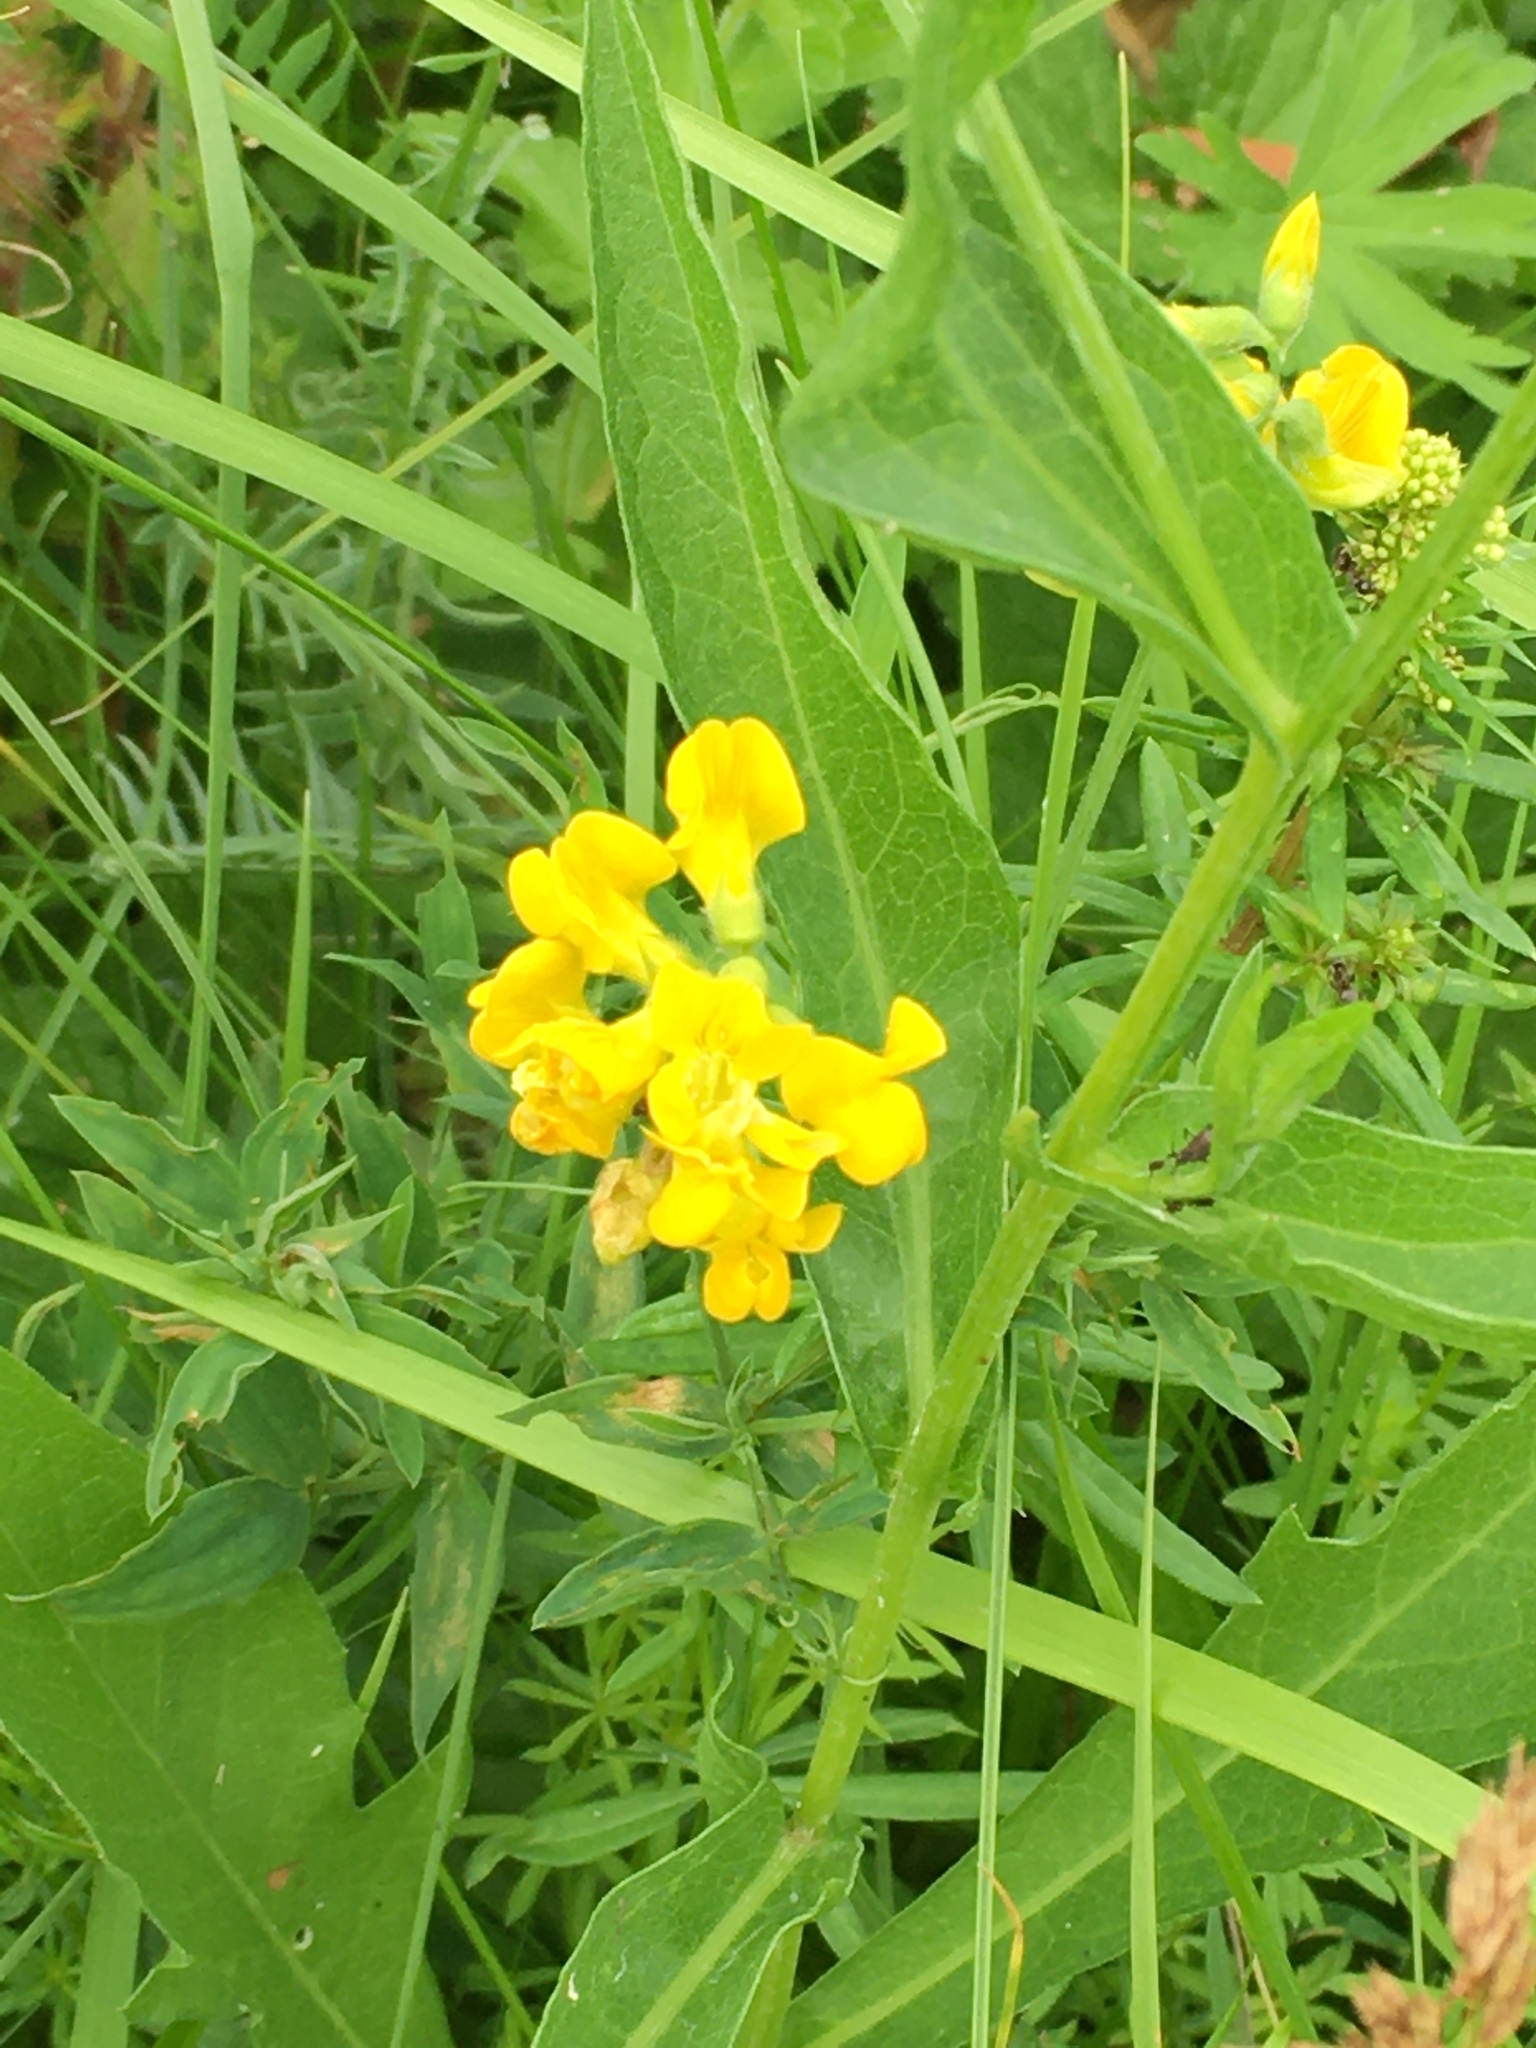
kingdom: Plantae
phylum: Tracheophyta
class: Magnoliopsida
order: Fabales
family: Fabaceae
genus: Lathyrus
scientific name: Lathyrus pratensis
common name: Meadow vetchling
